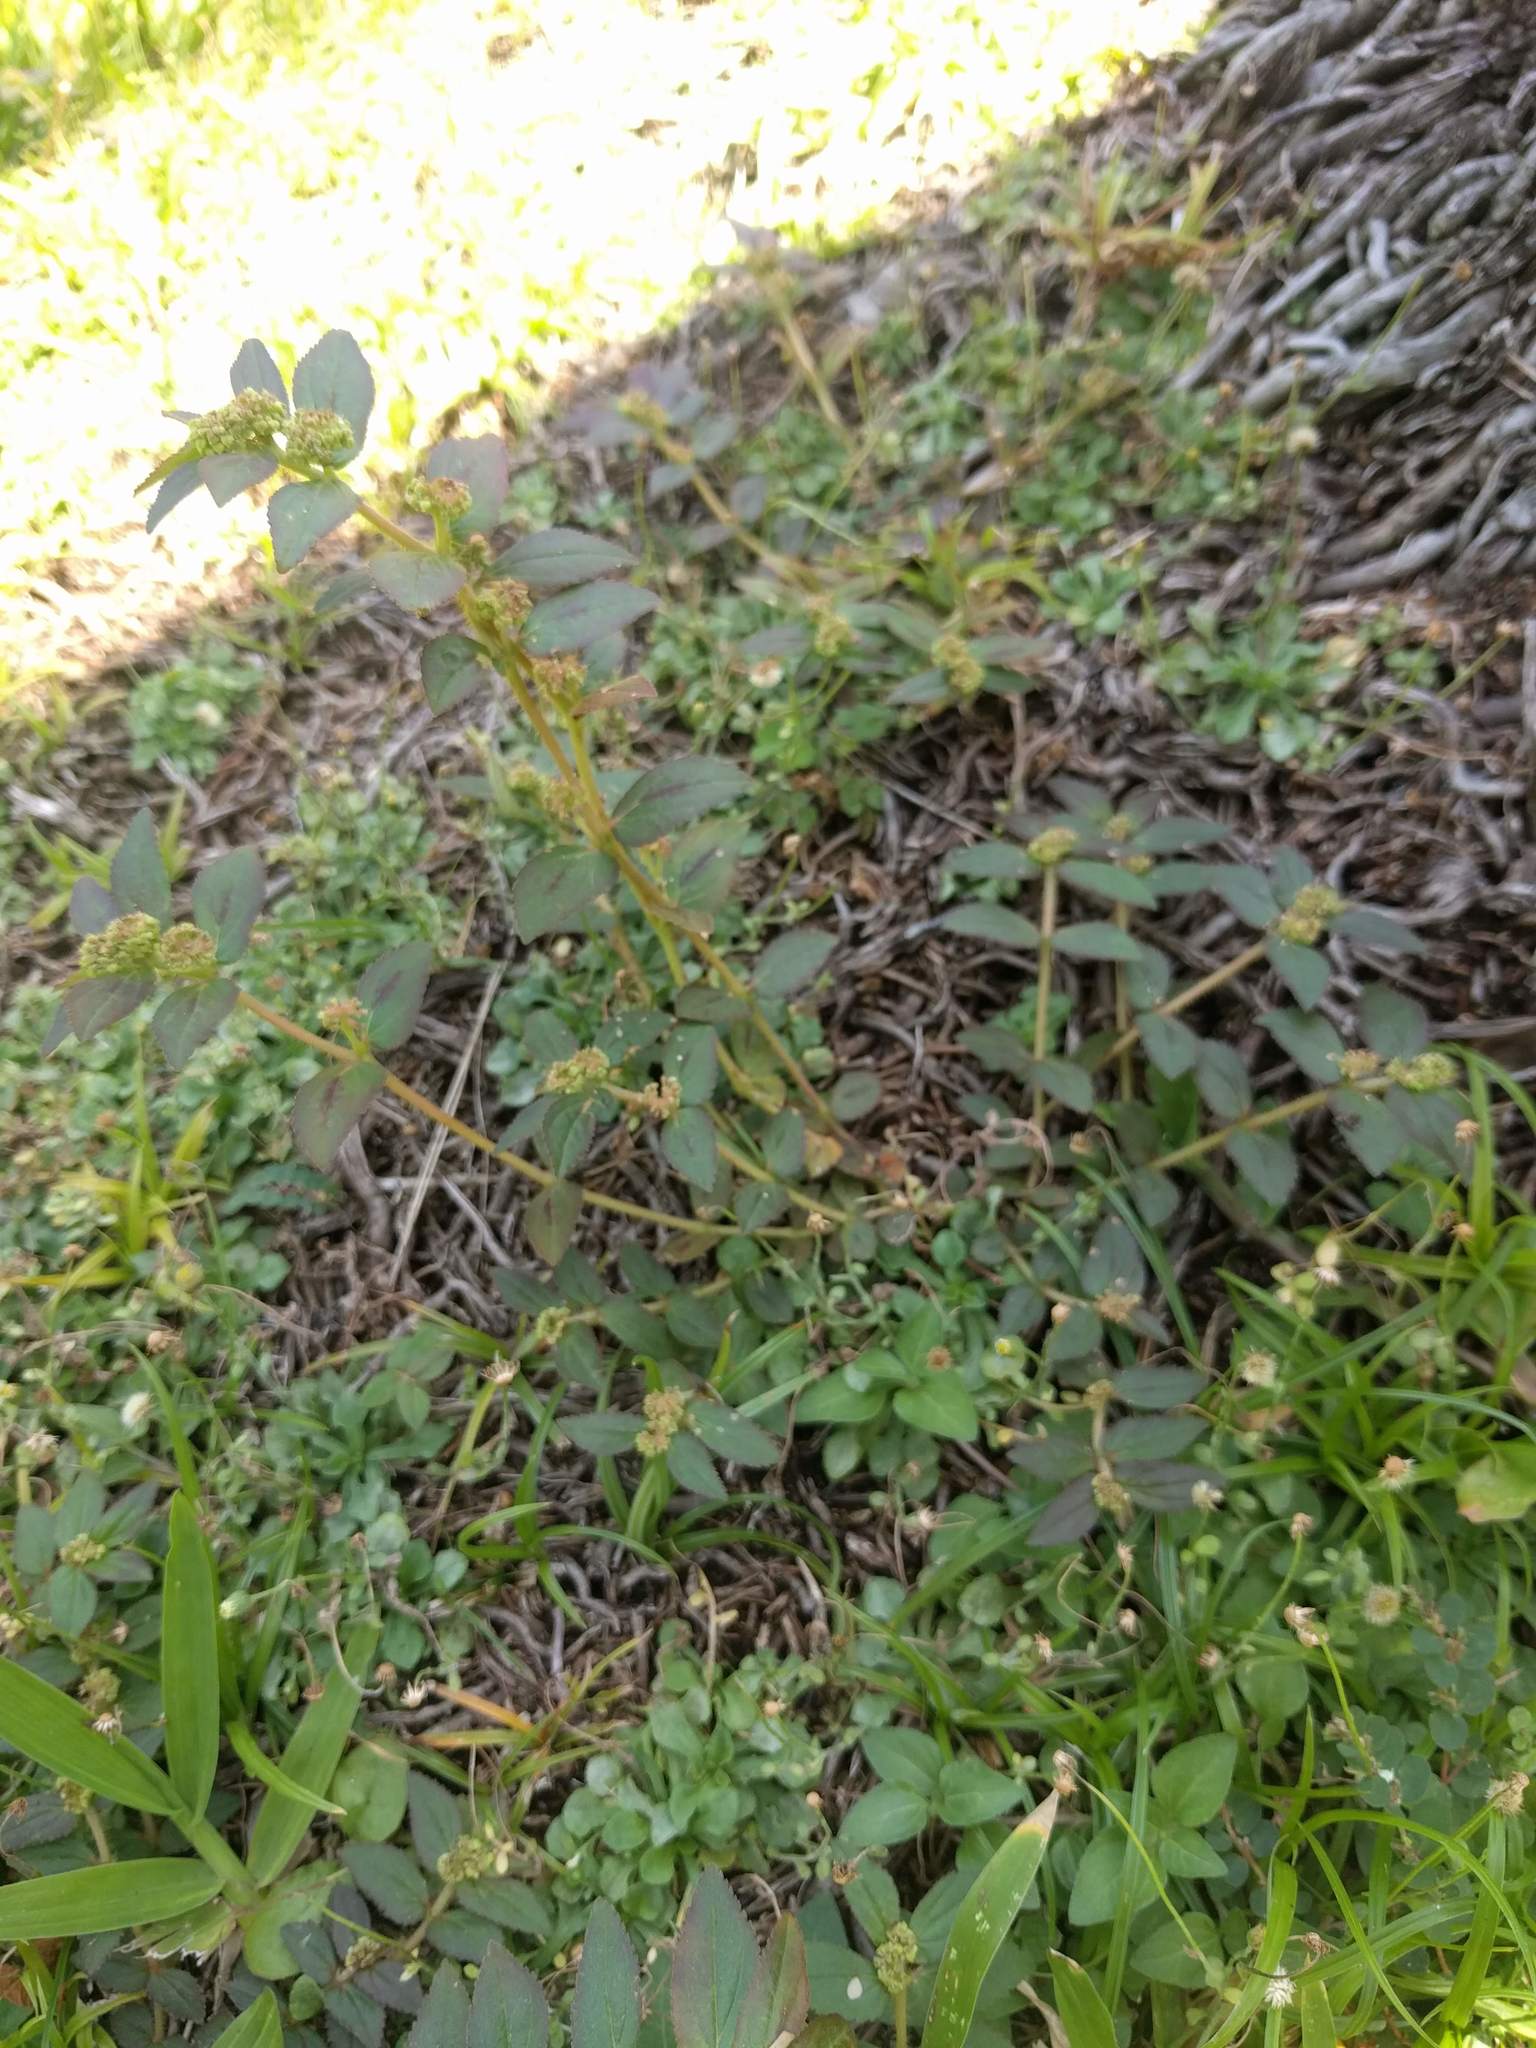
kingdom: Plantae
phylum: Tracheophyta
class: Magnoliopsida
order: Malpighiales
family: Euphorbiaceae
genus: Euphorbia
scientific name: Euphorbia hirta
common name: Pillpod sandmat
